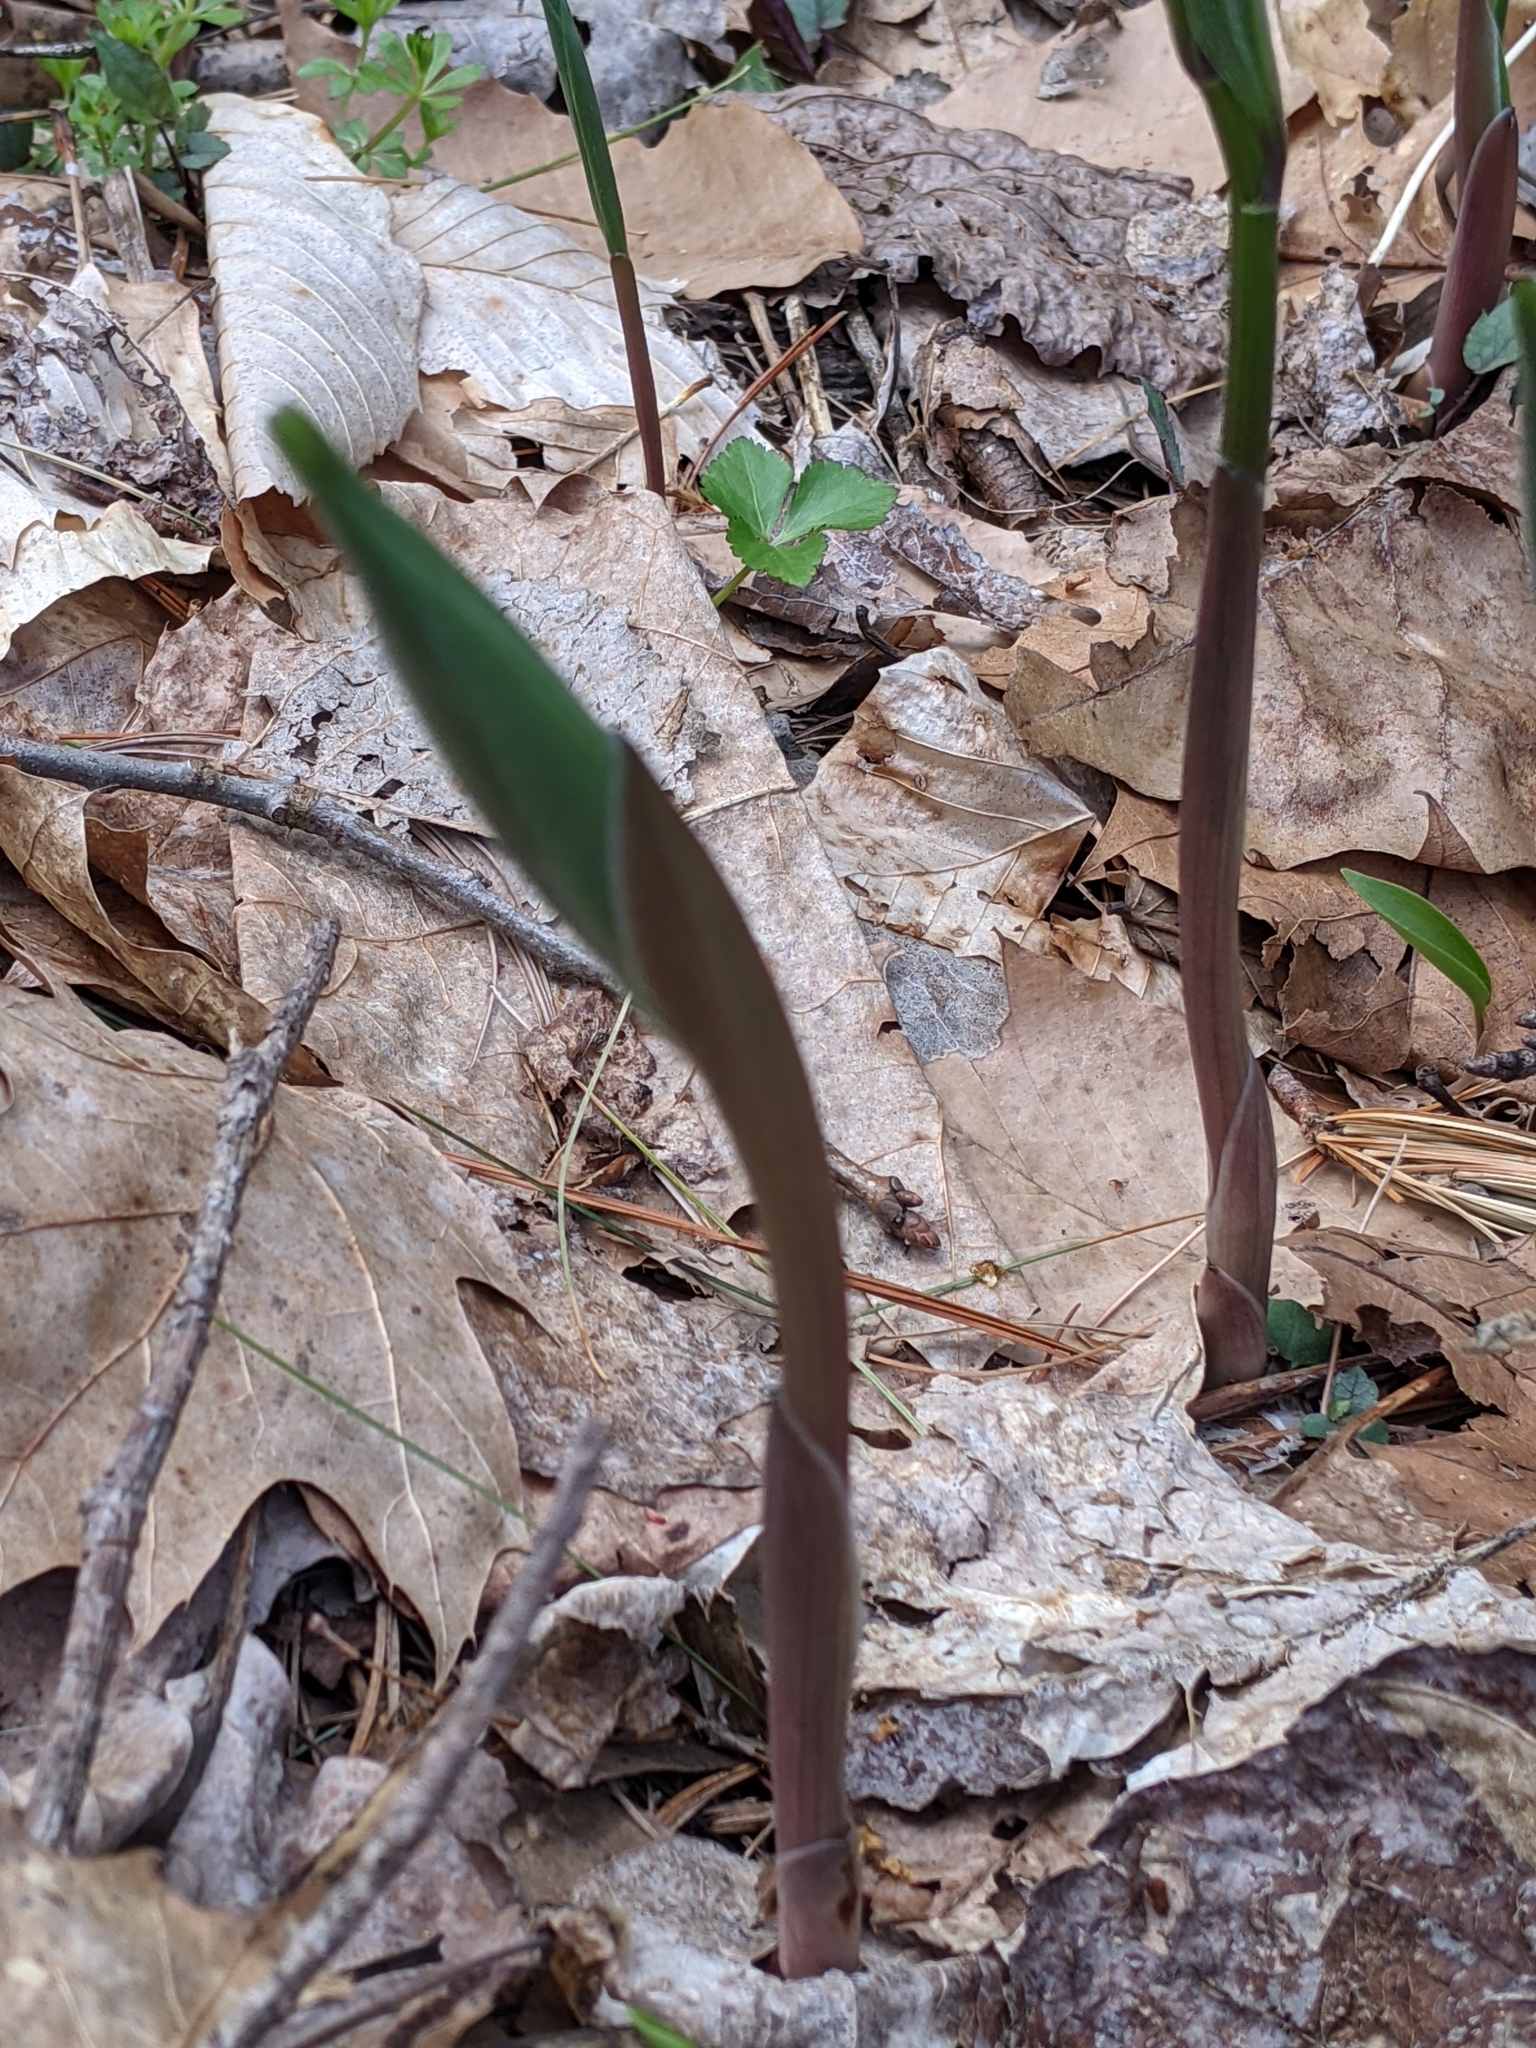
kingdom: Plantae
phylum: Tracheophyta
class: Liliopsida
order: Asparagales
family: Asparagaceae
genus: Maianthemum
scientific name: Maianthemum racemosum
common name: False spikenard
